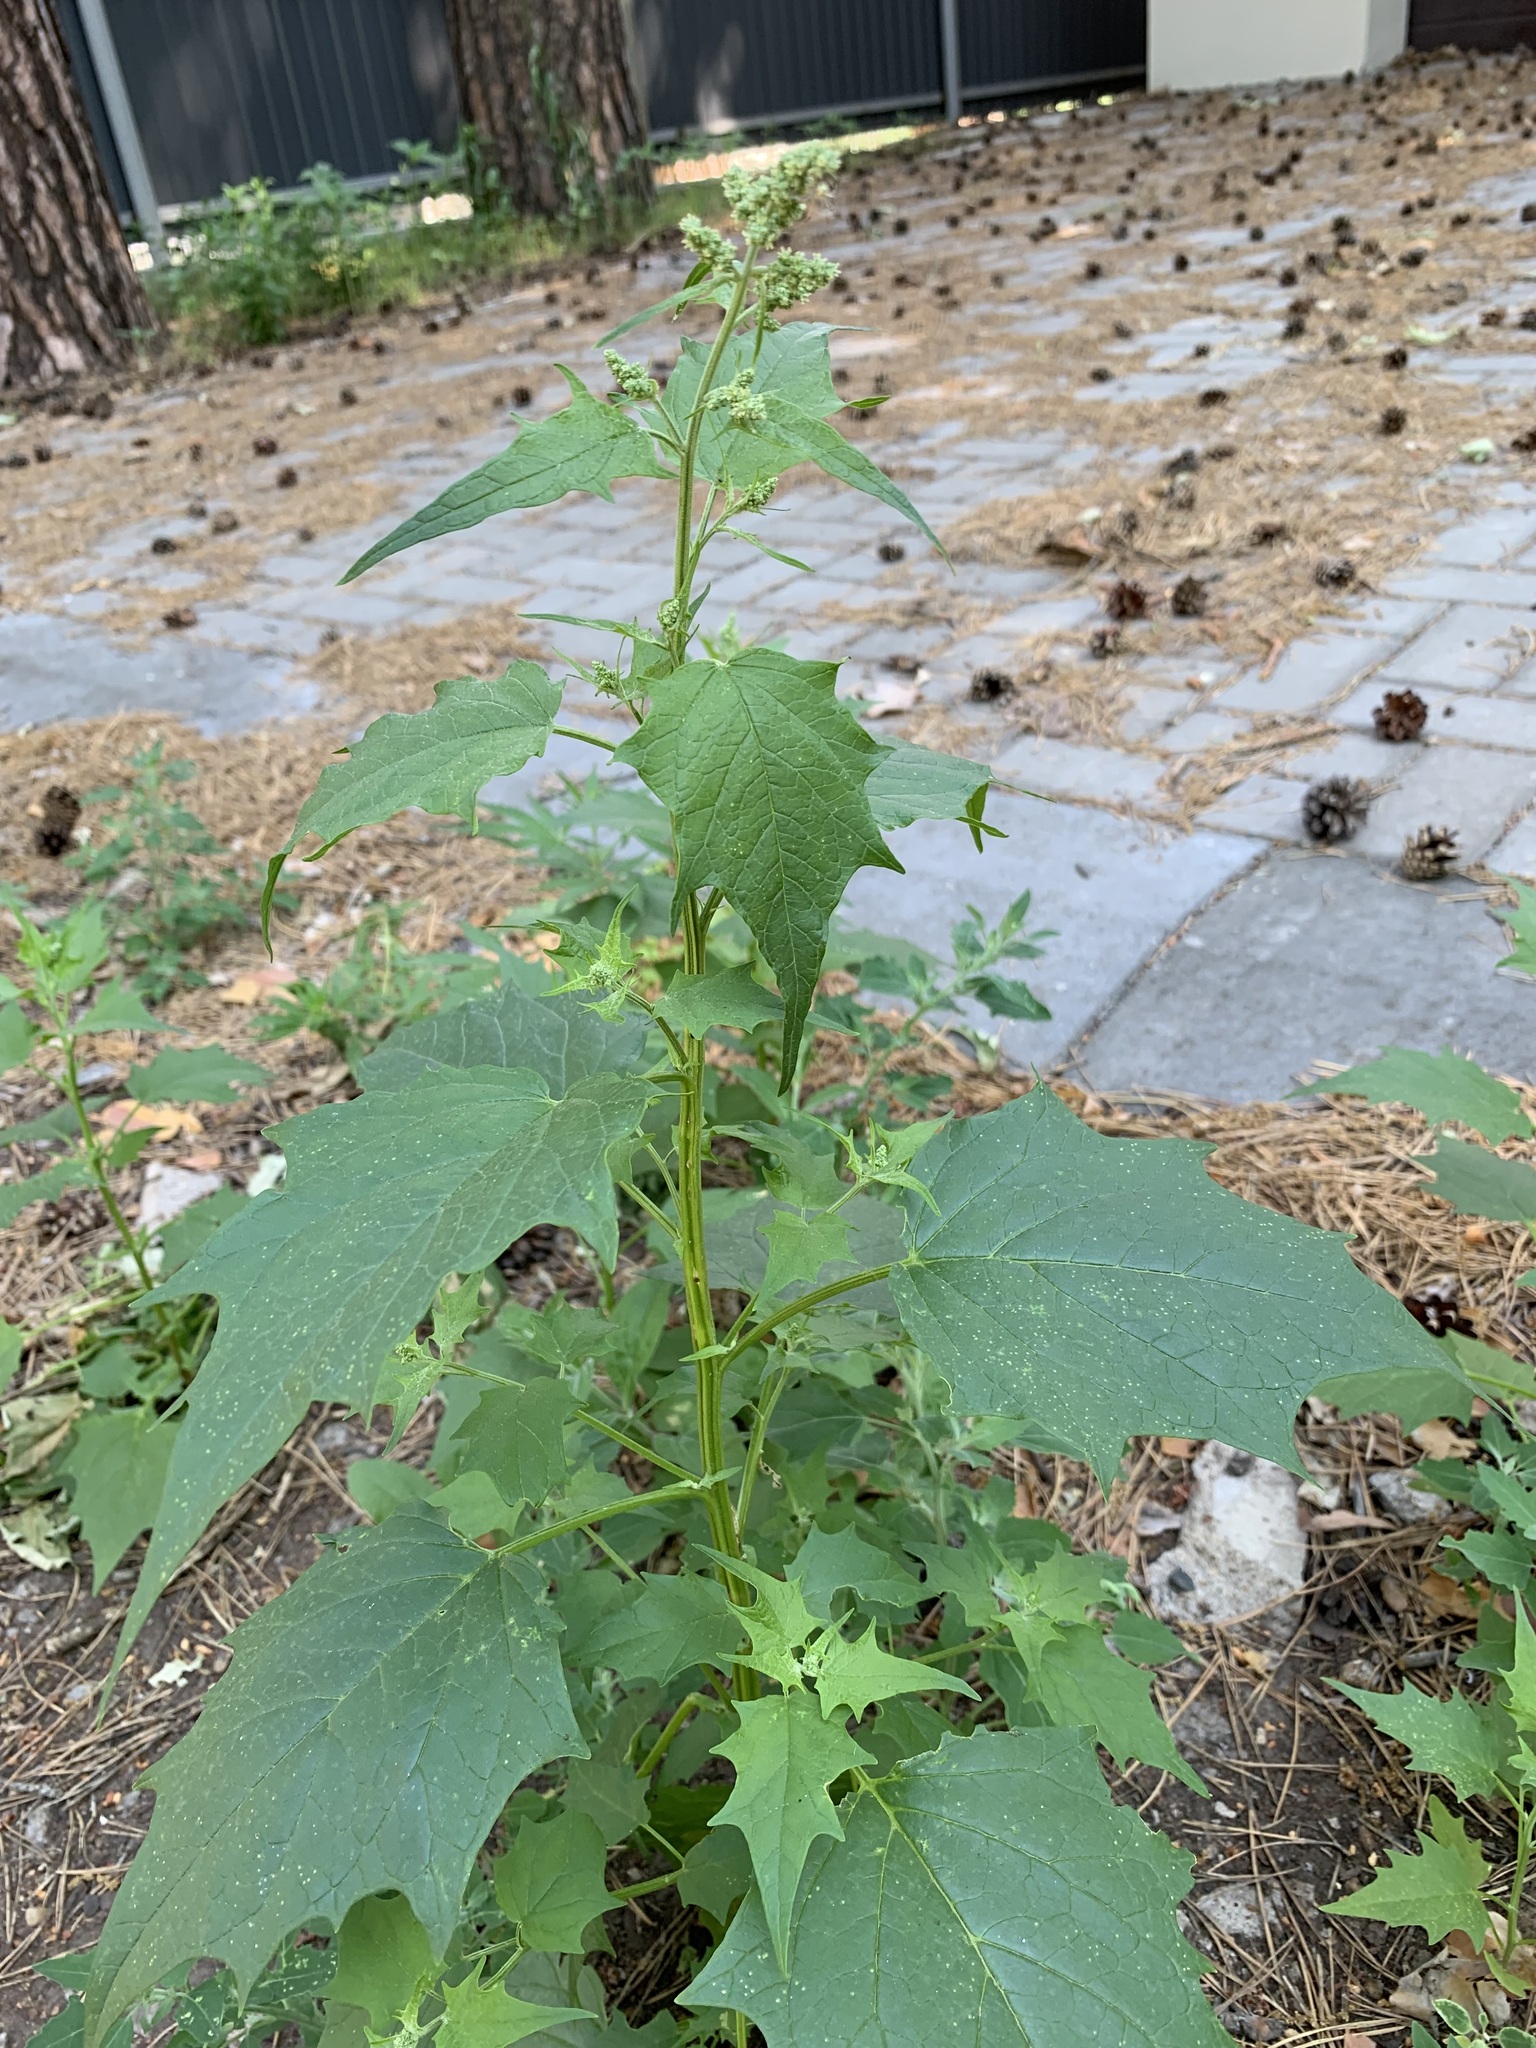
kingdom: Plantae
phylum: Tracheophyta
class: Magnoliopsida
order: Caryophyllales
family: Amaranthaceae
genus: Chenopodiastrum
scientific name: Chenopodiastrum hybridum
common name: Mapleleaf goosefoot
